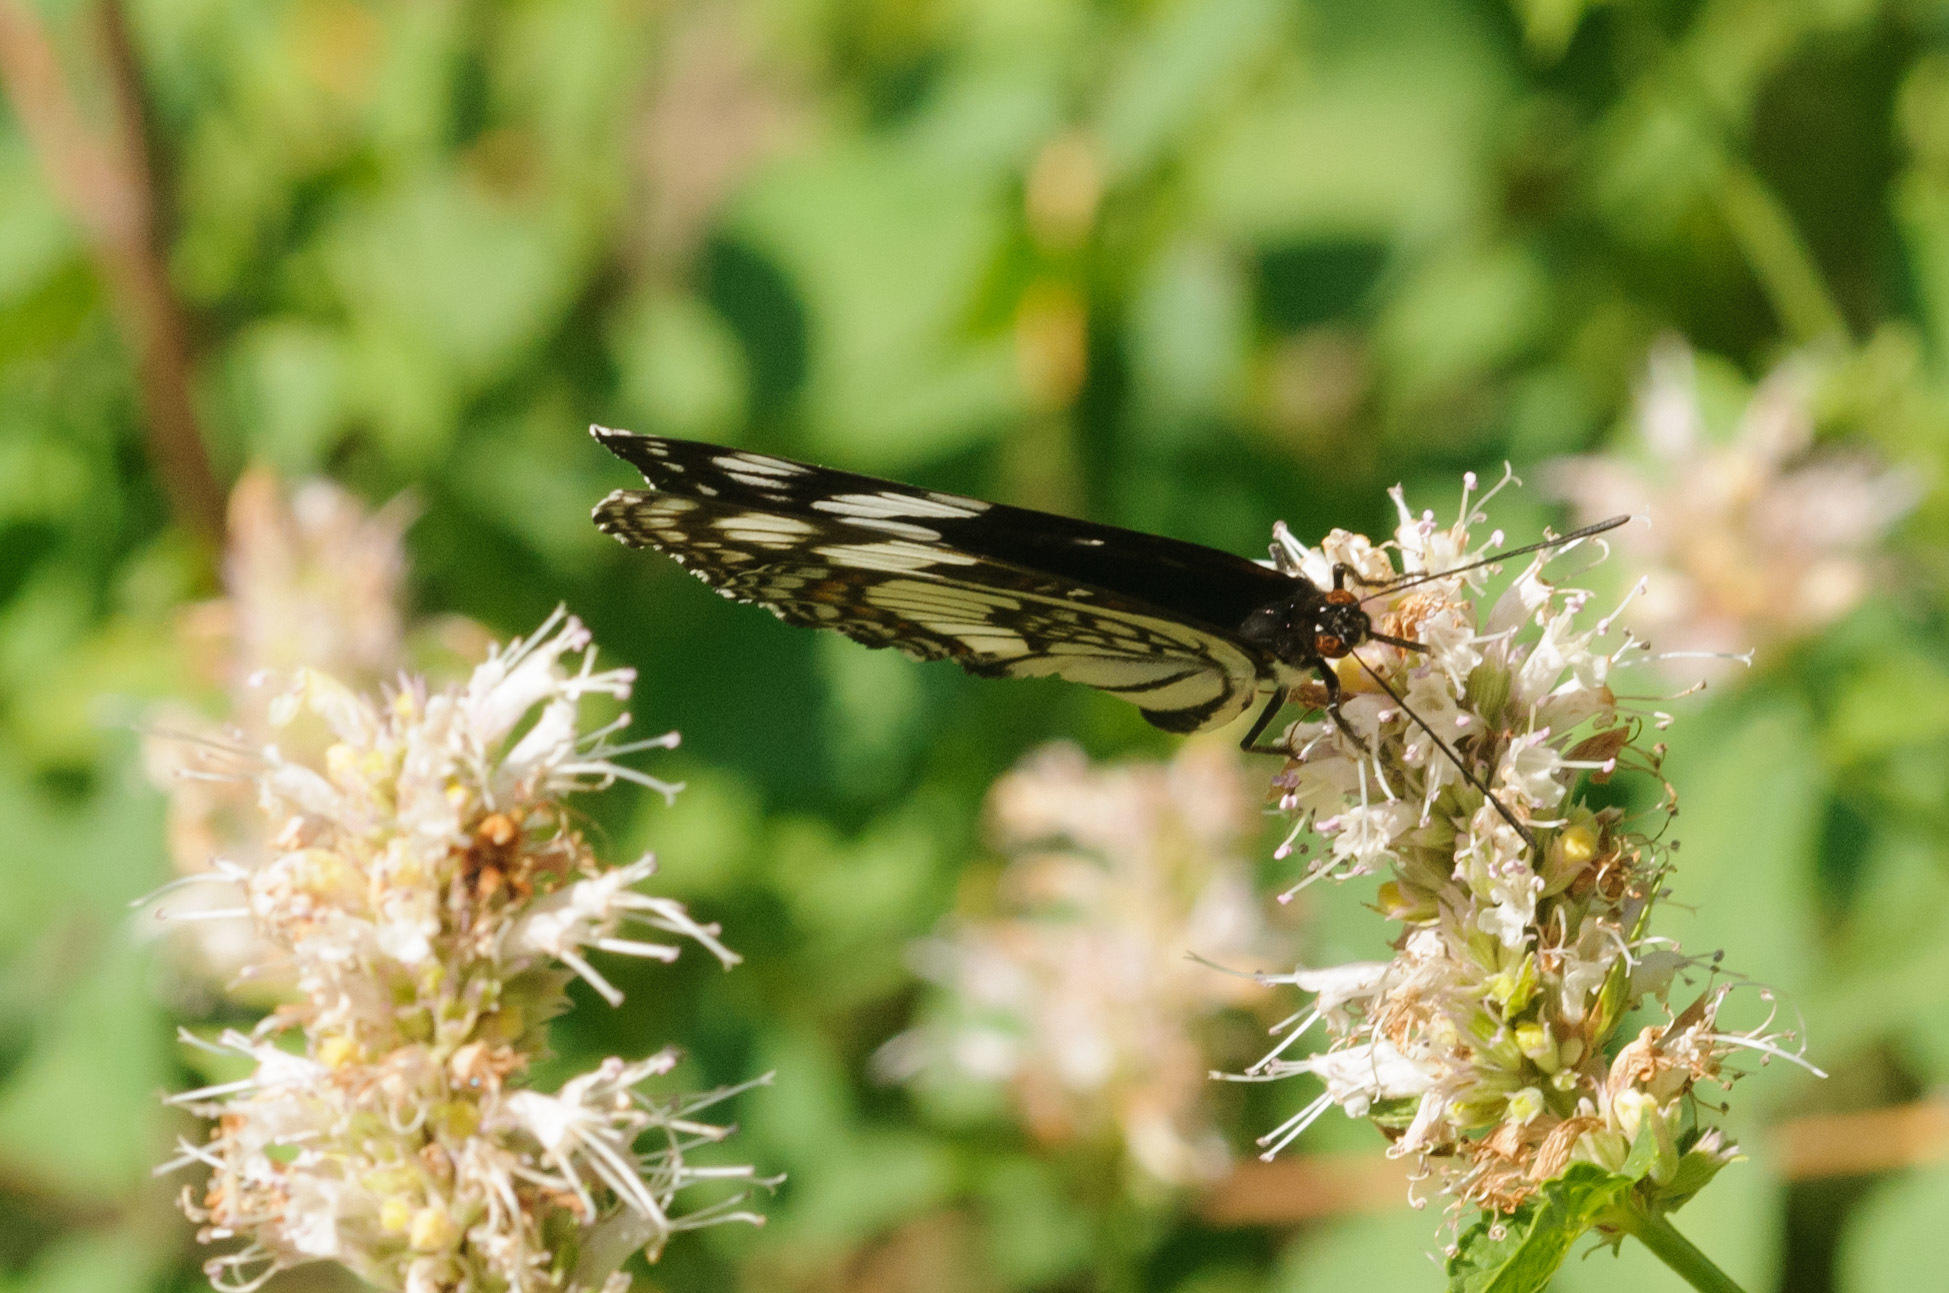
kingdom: Animalia
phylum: Arthropoda
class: Insecta
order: Lepidoptera
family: Nymphalidae
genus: Limenitis
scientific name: Limenitis weidemeyerii
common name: Weidemeyer's admiral
